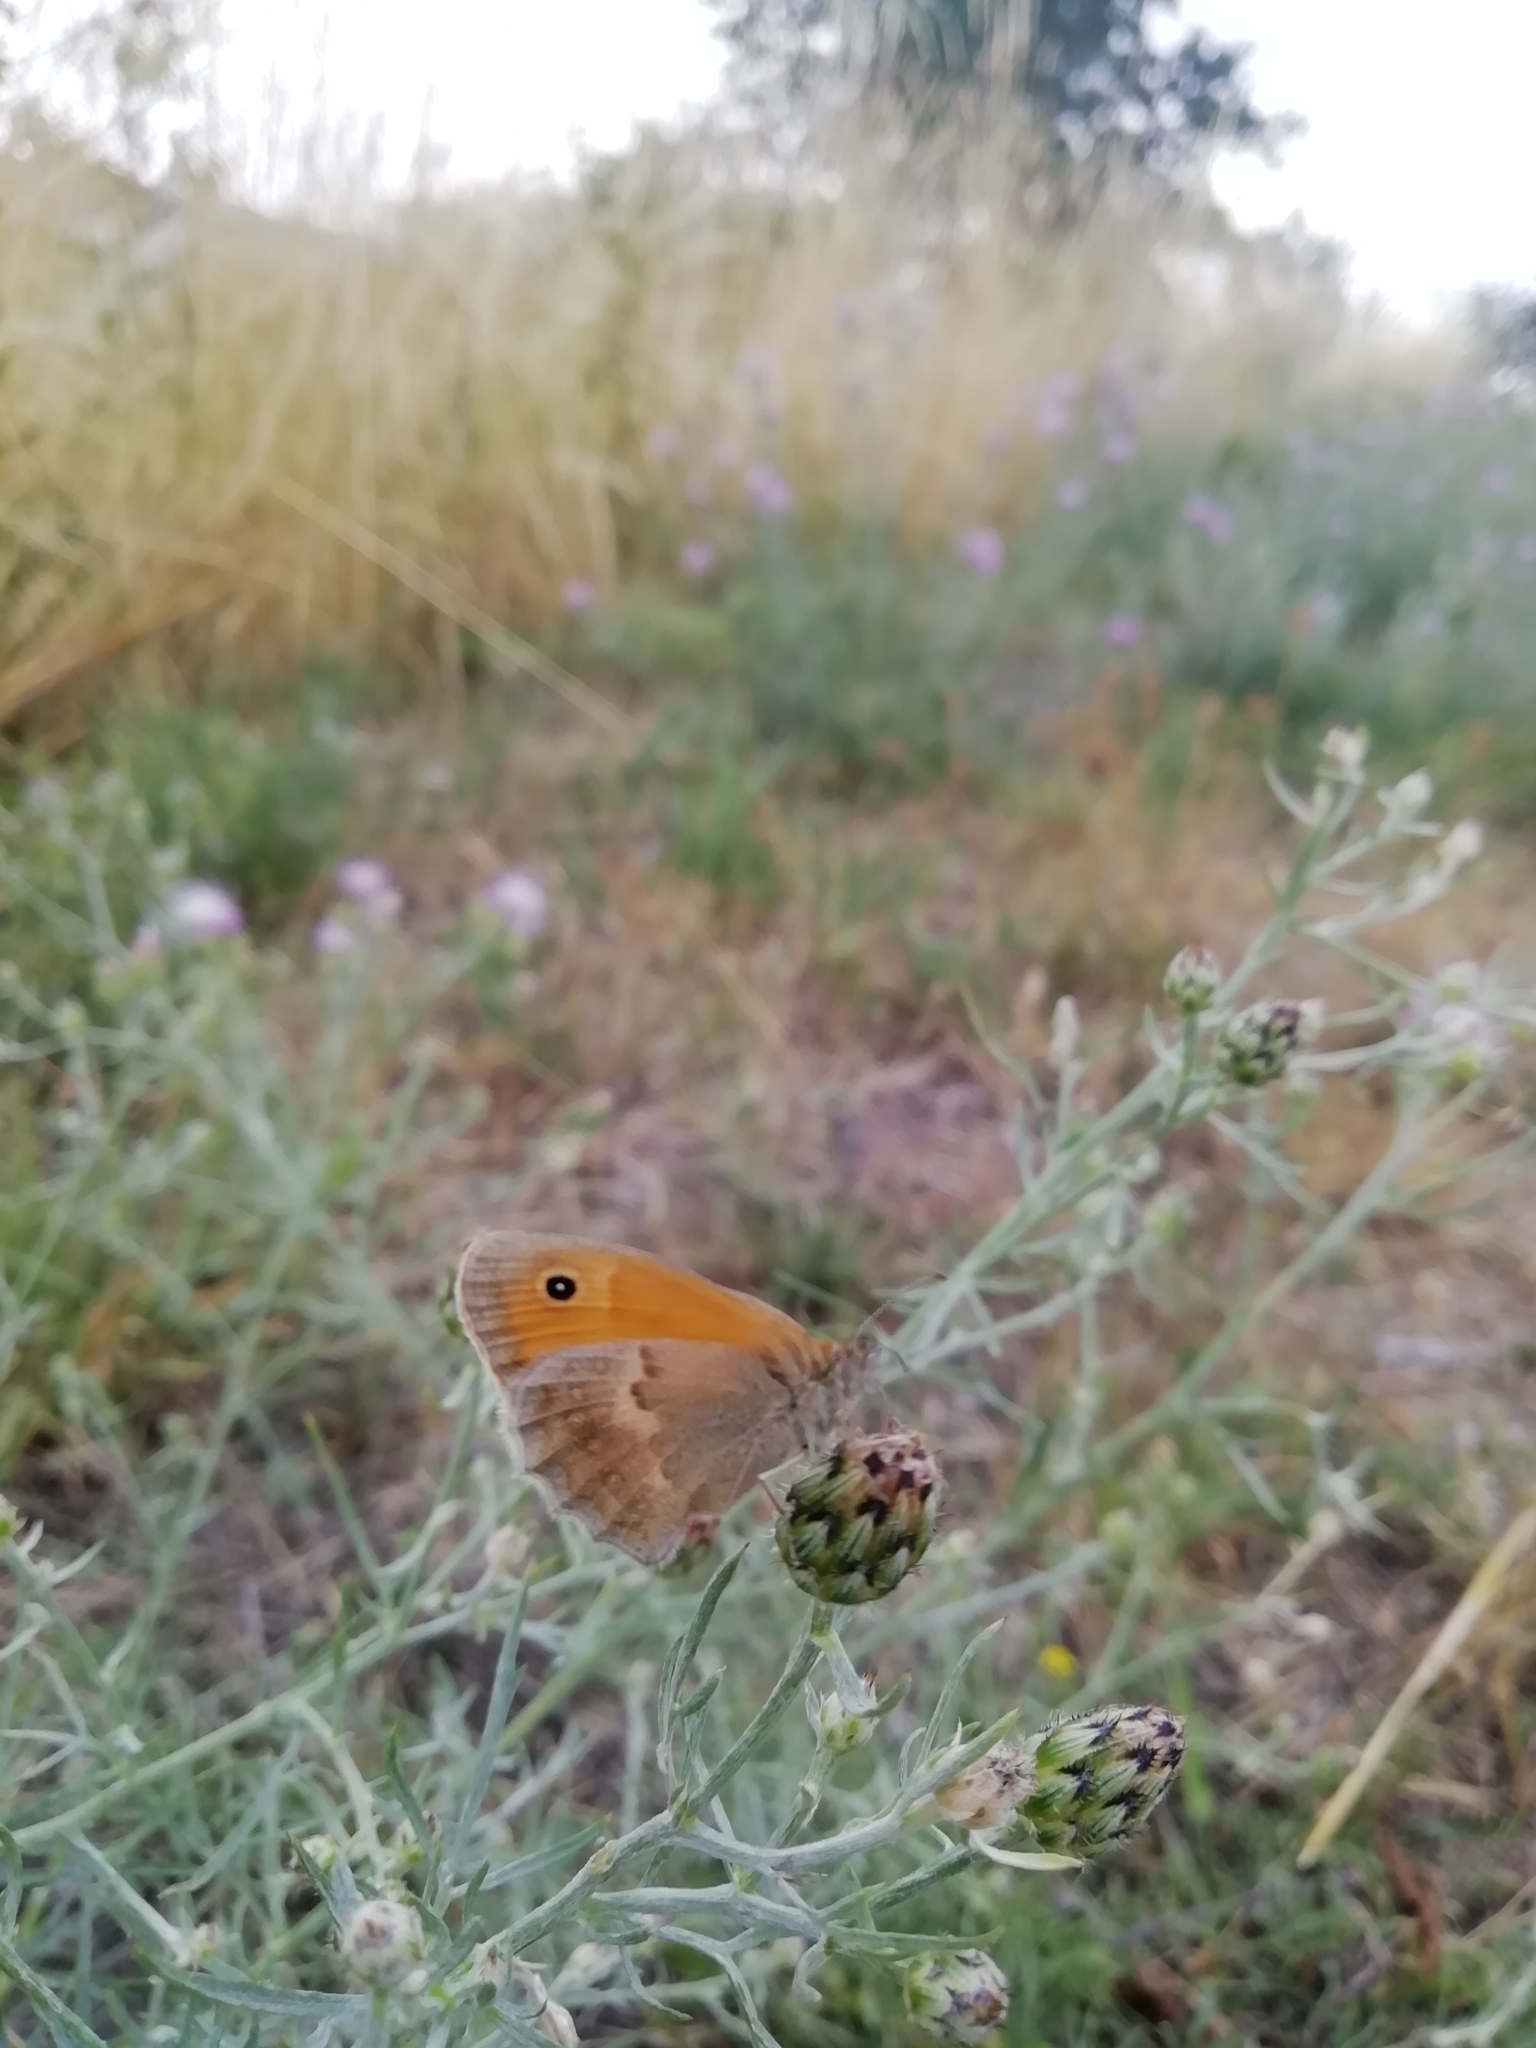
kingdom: Animalia
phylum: Arthropoda
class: Insecta
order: Lepidoptera
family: Nymphalidae
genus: Coenonympha
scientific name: Coenonympha pamphilus
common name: Small heath
